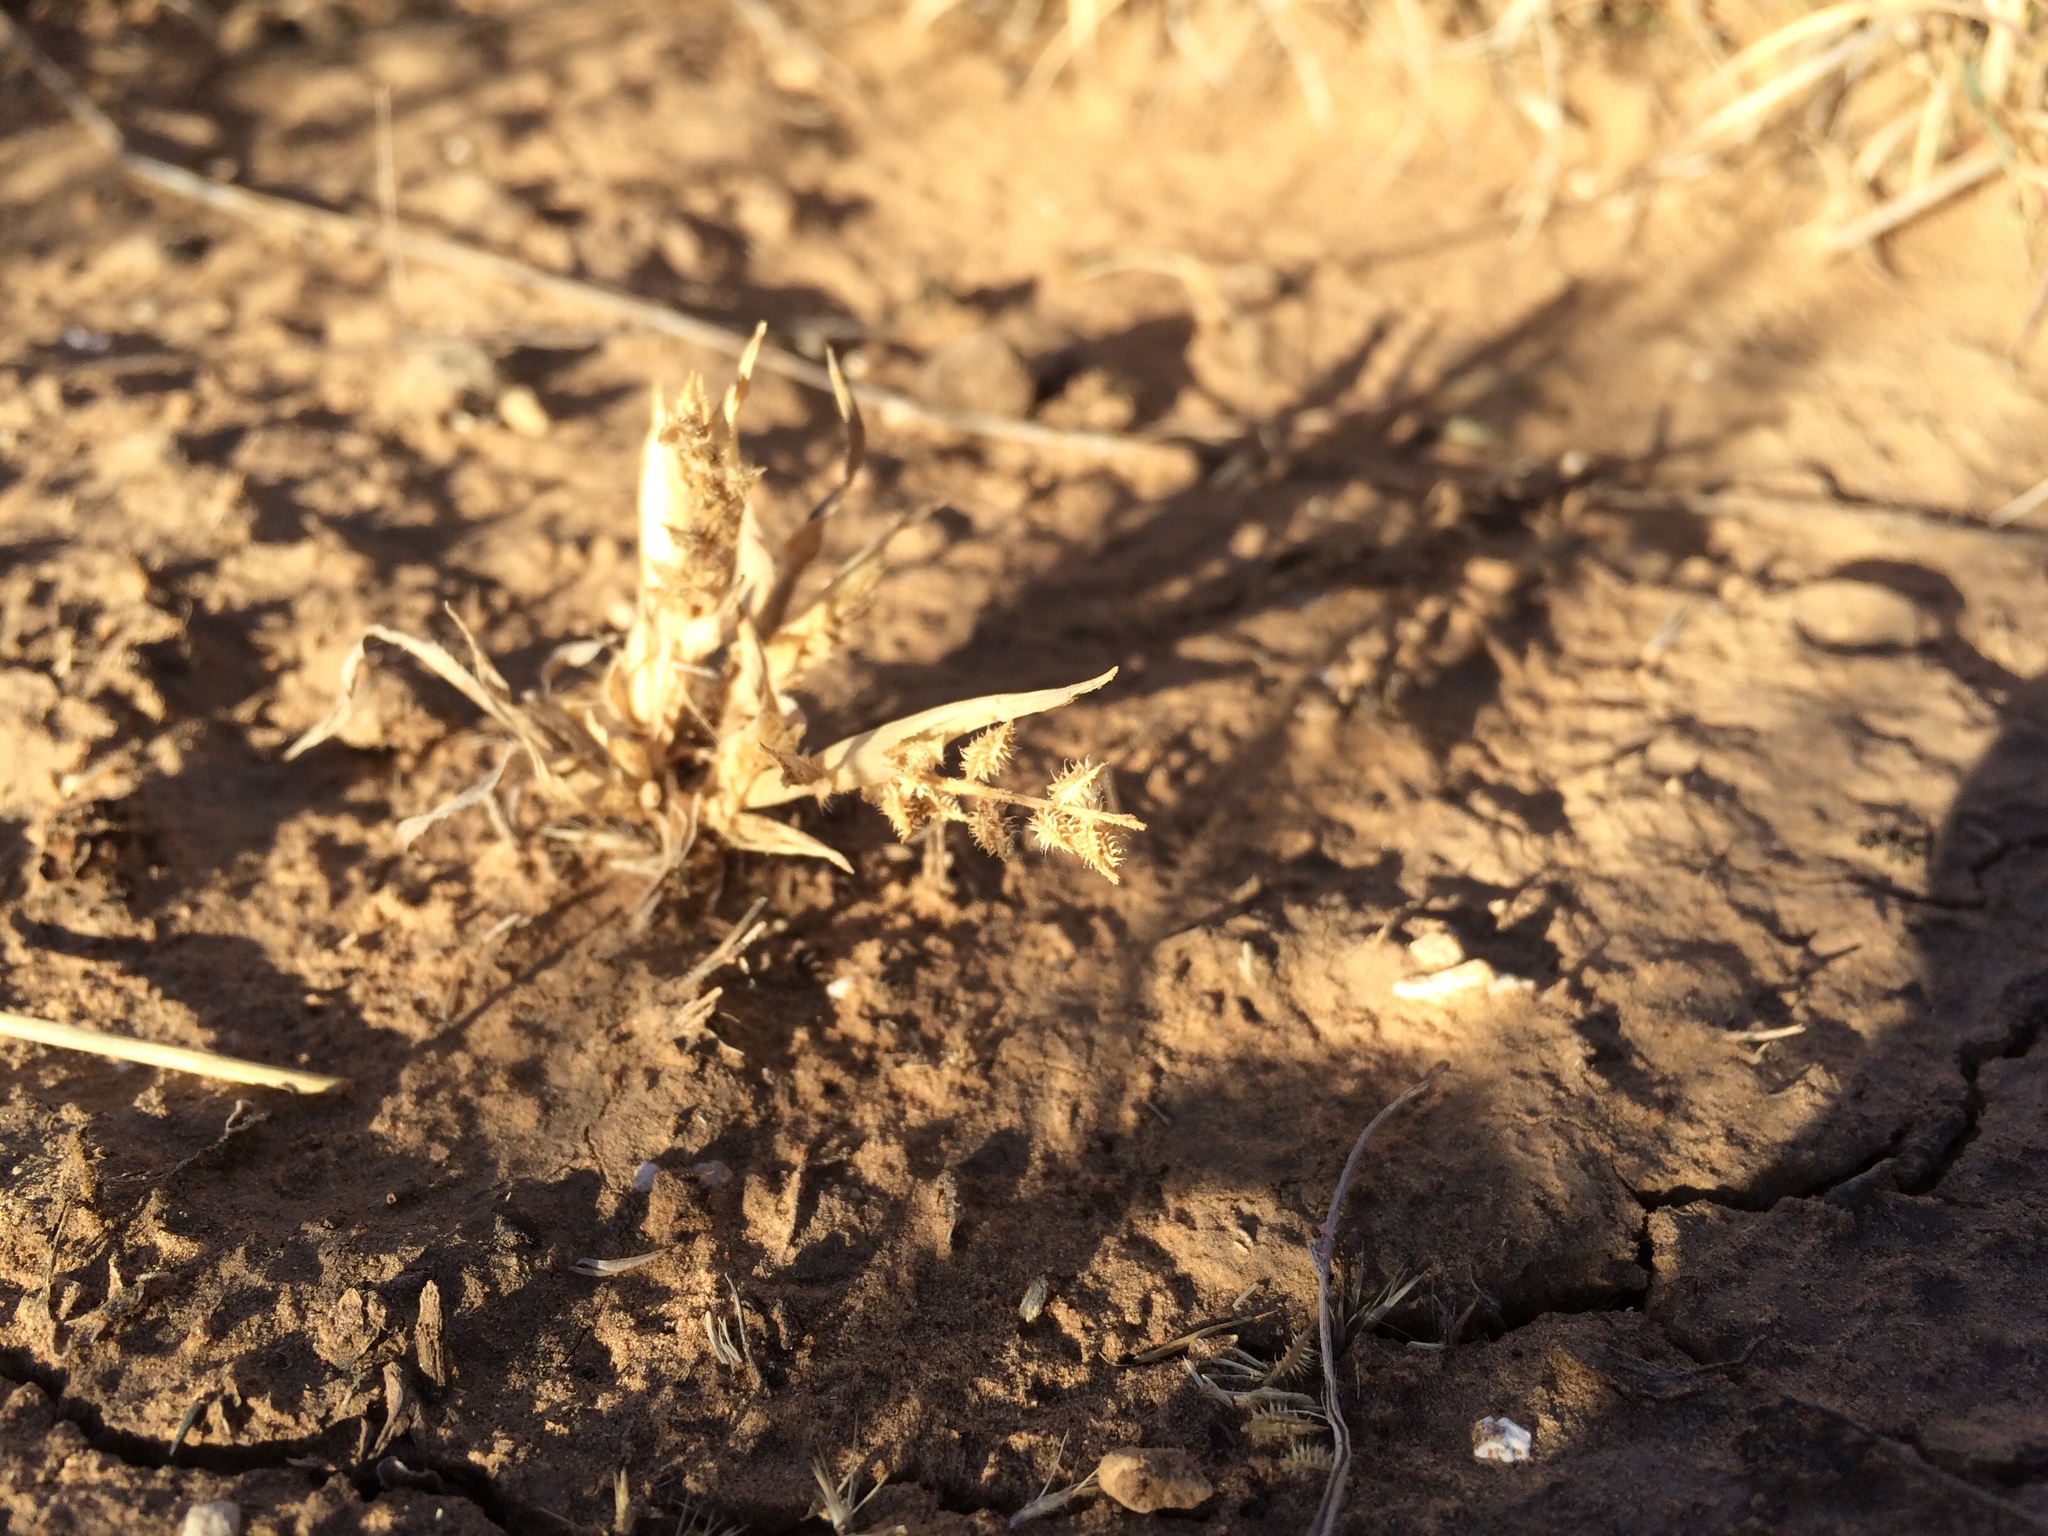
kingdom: Plantae
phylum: Tracheophyta
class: Liliopsida
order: Poales
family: Poaceae
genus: Tragus
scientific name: Tragus berteronianus
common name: African bur-grass
